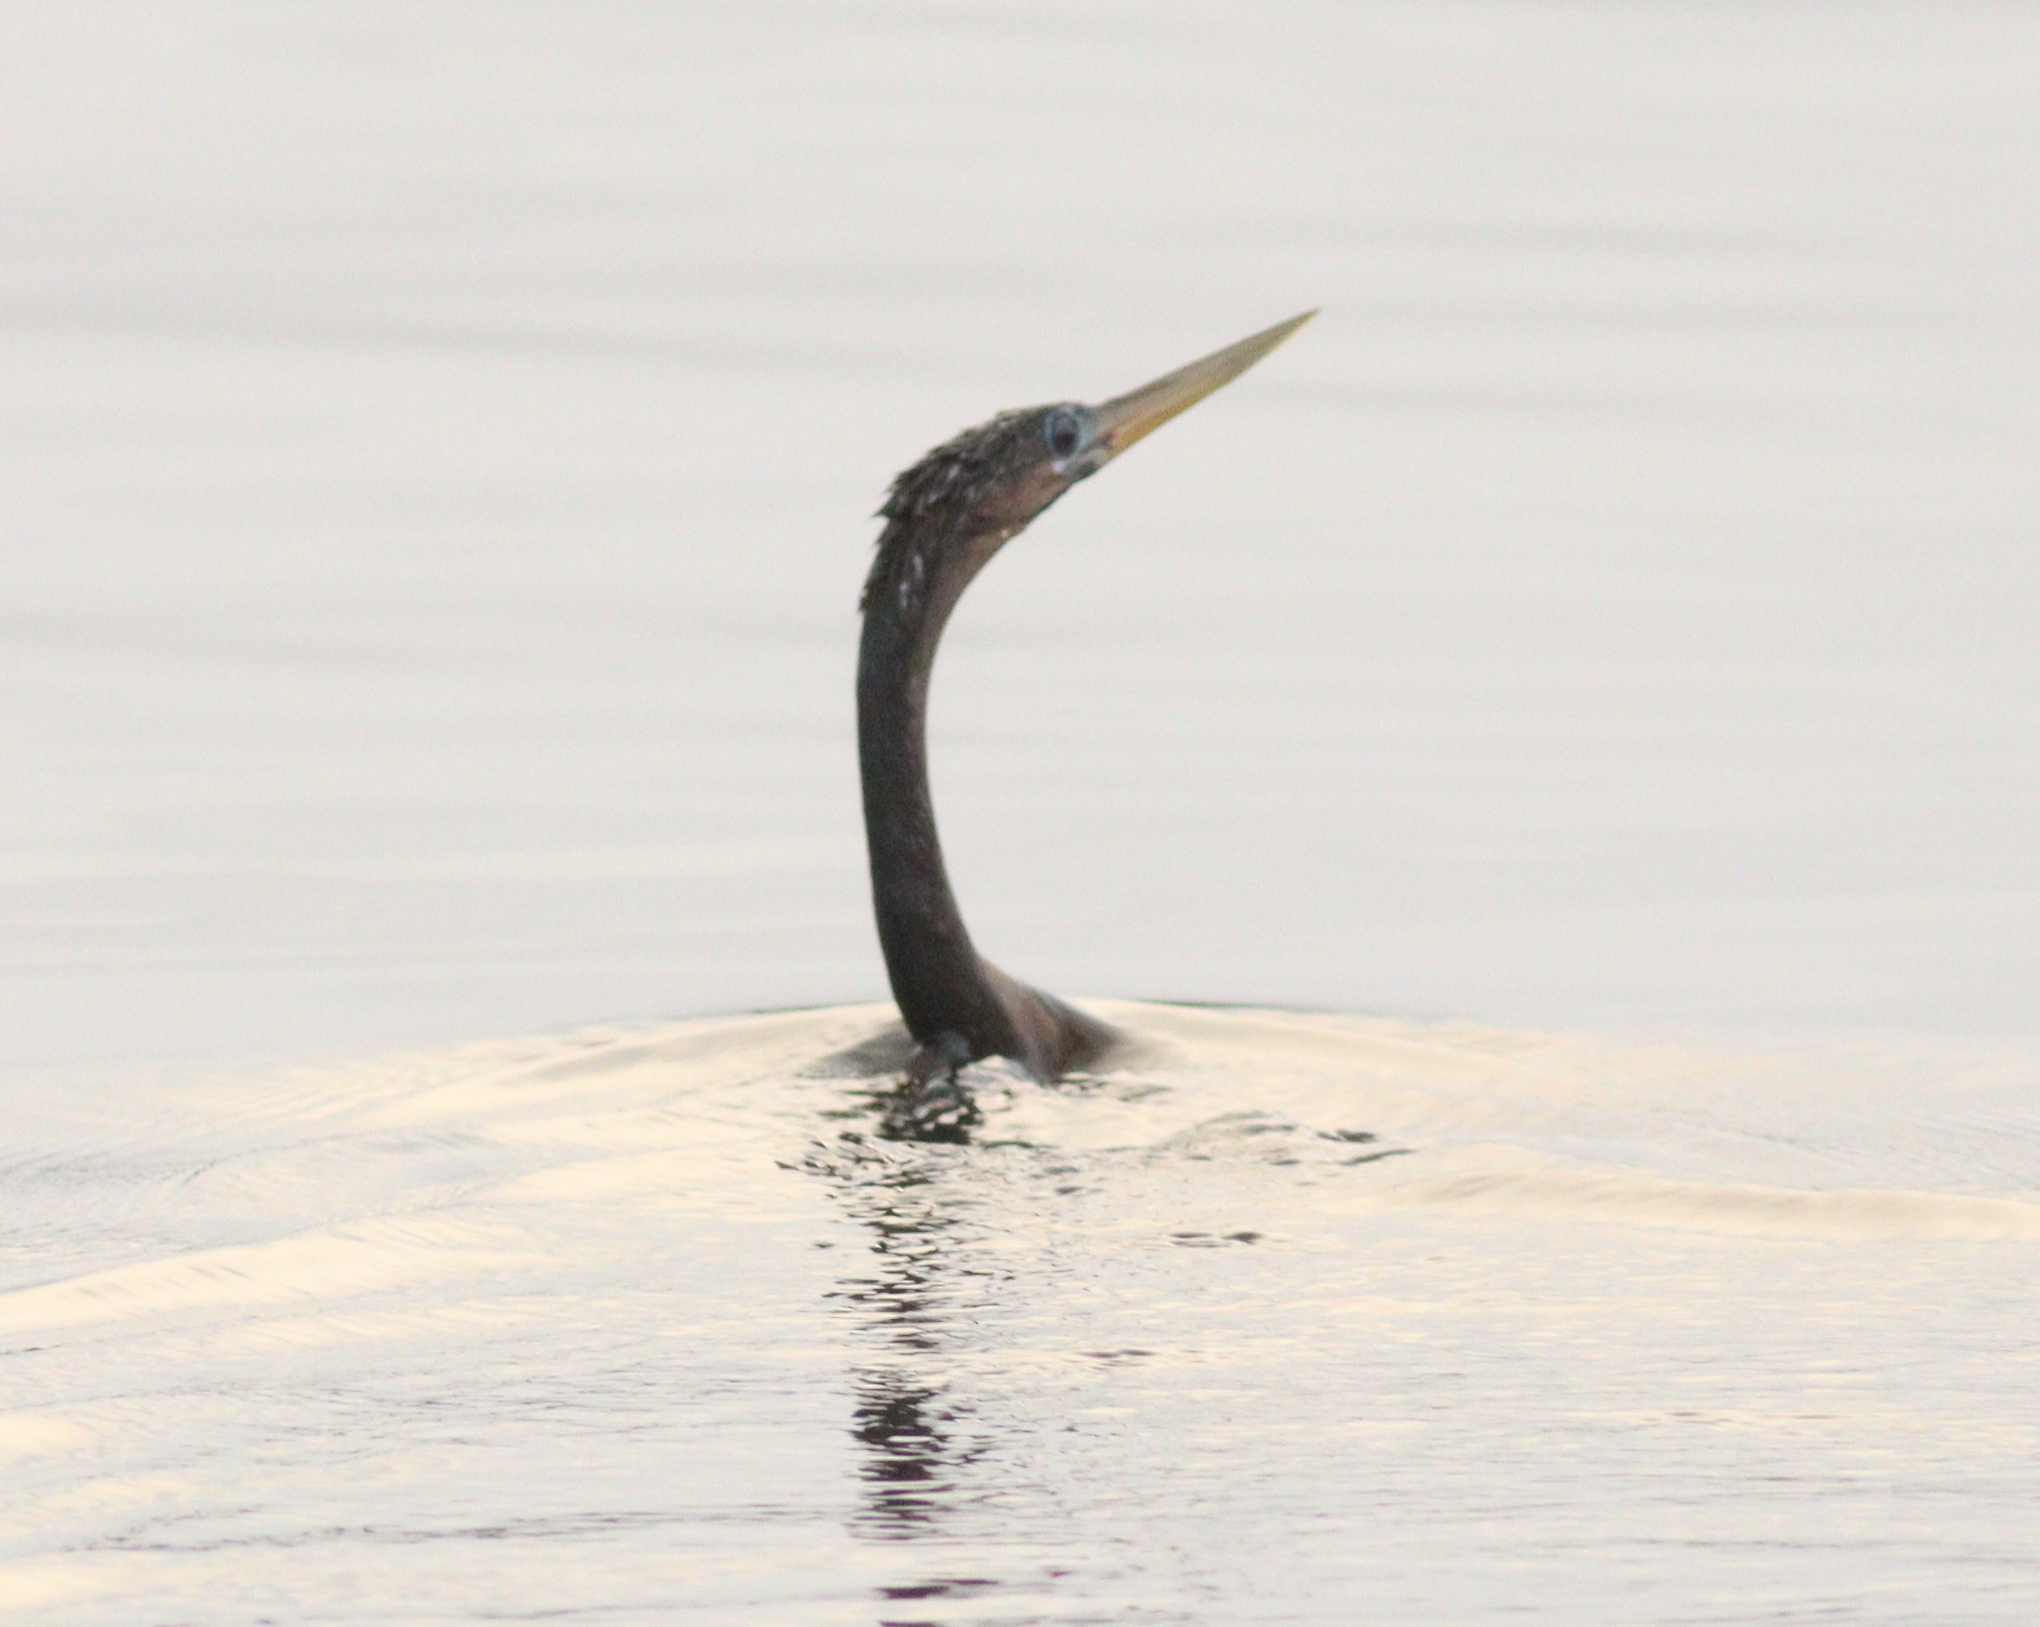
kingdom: Animalia
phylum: Chordata
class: Aves
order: Suliformes
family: Anhingidae
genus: Anhinga
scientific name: Anhinga anhinga
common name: Anhinga
